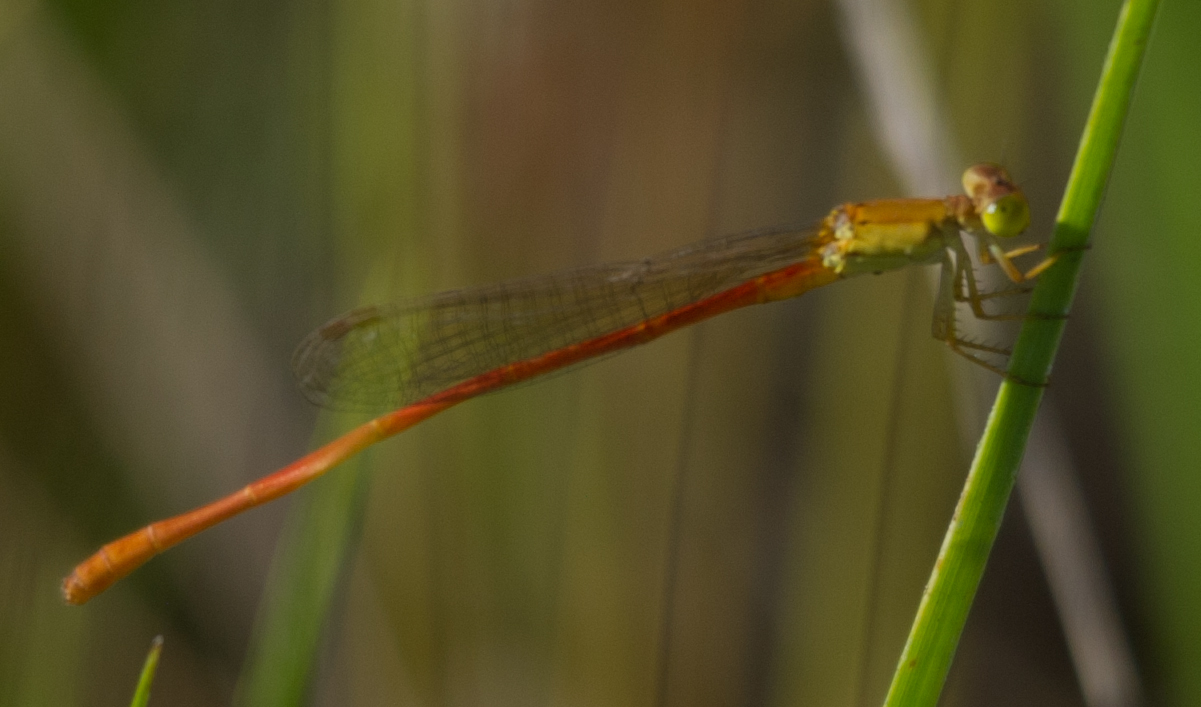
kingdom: Animalia
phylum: Arthropoda
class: Insecta
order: Odonata
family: Coenagrionidae
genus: Ceriagrion
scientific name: Ceriagrion glabrum
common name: Common pond damsel
